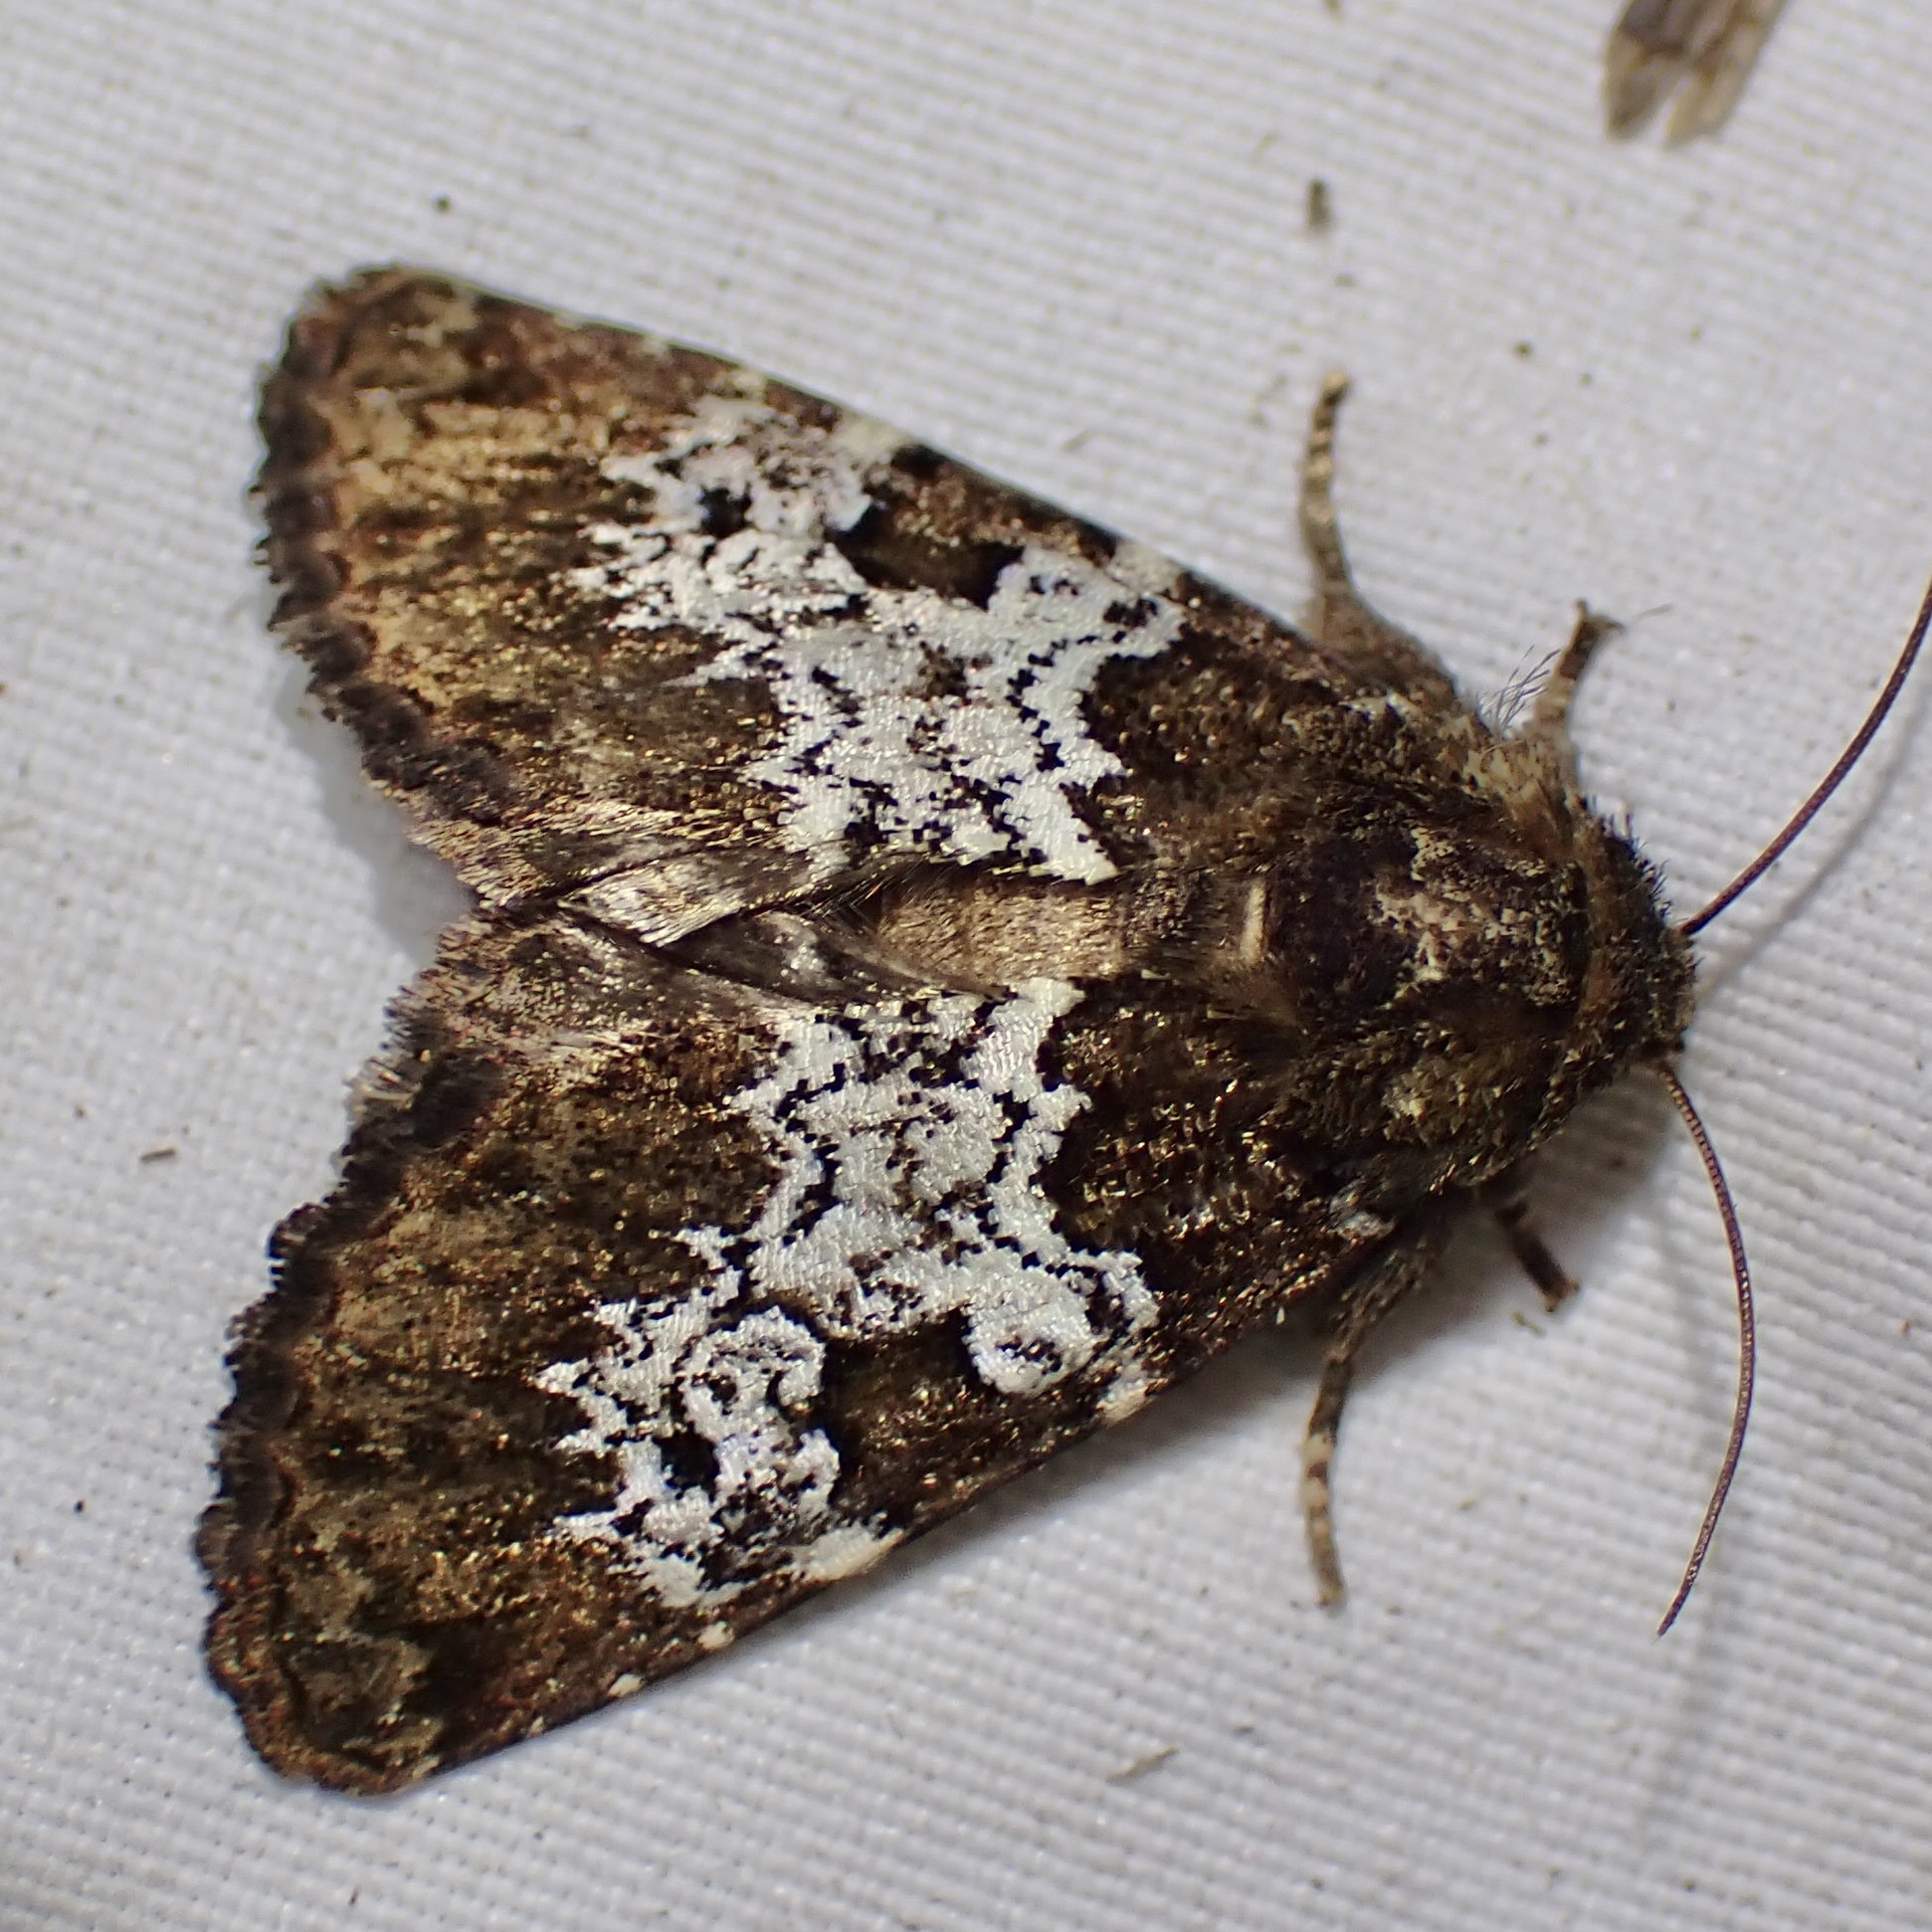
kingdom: Animalia
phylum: Arthropoda
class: Insecta
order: Lepidoptera
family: Noctuidae
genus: Euamiana
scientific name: Euamiana contrasta
